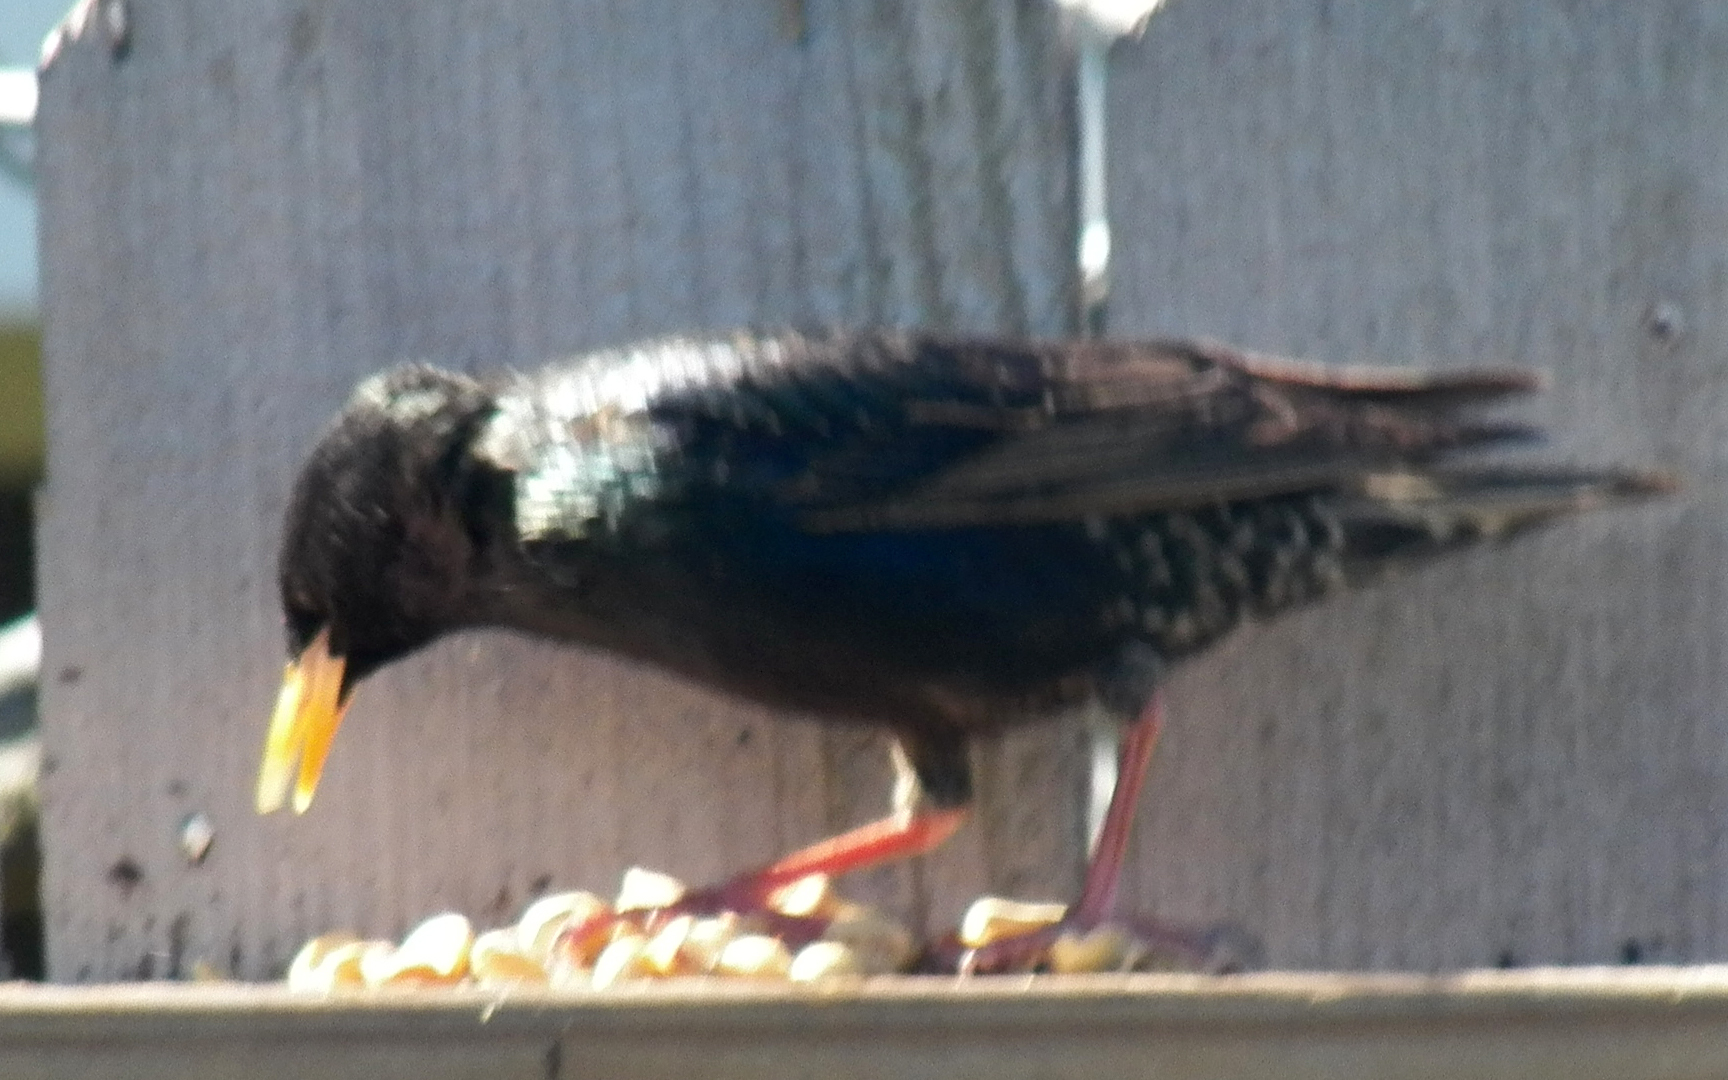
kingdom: Animalia
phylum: Chordata
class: Aves
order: Passeriformes
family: Sturnidae
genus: Sturnus
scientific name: Sturnus vulgaris
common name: Common starling
